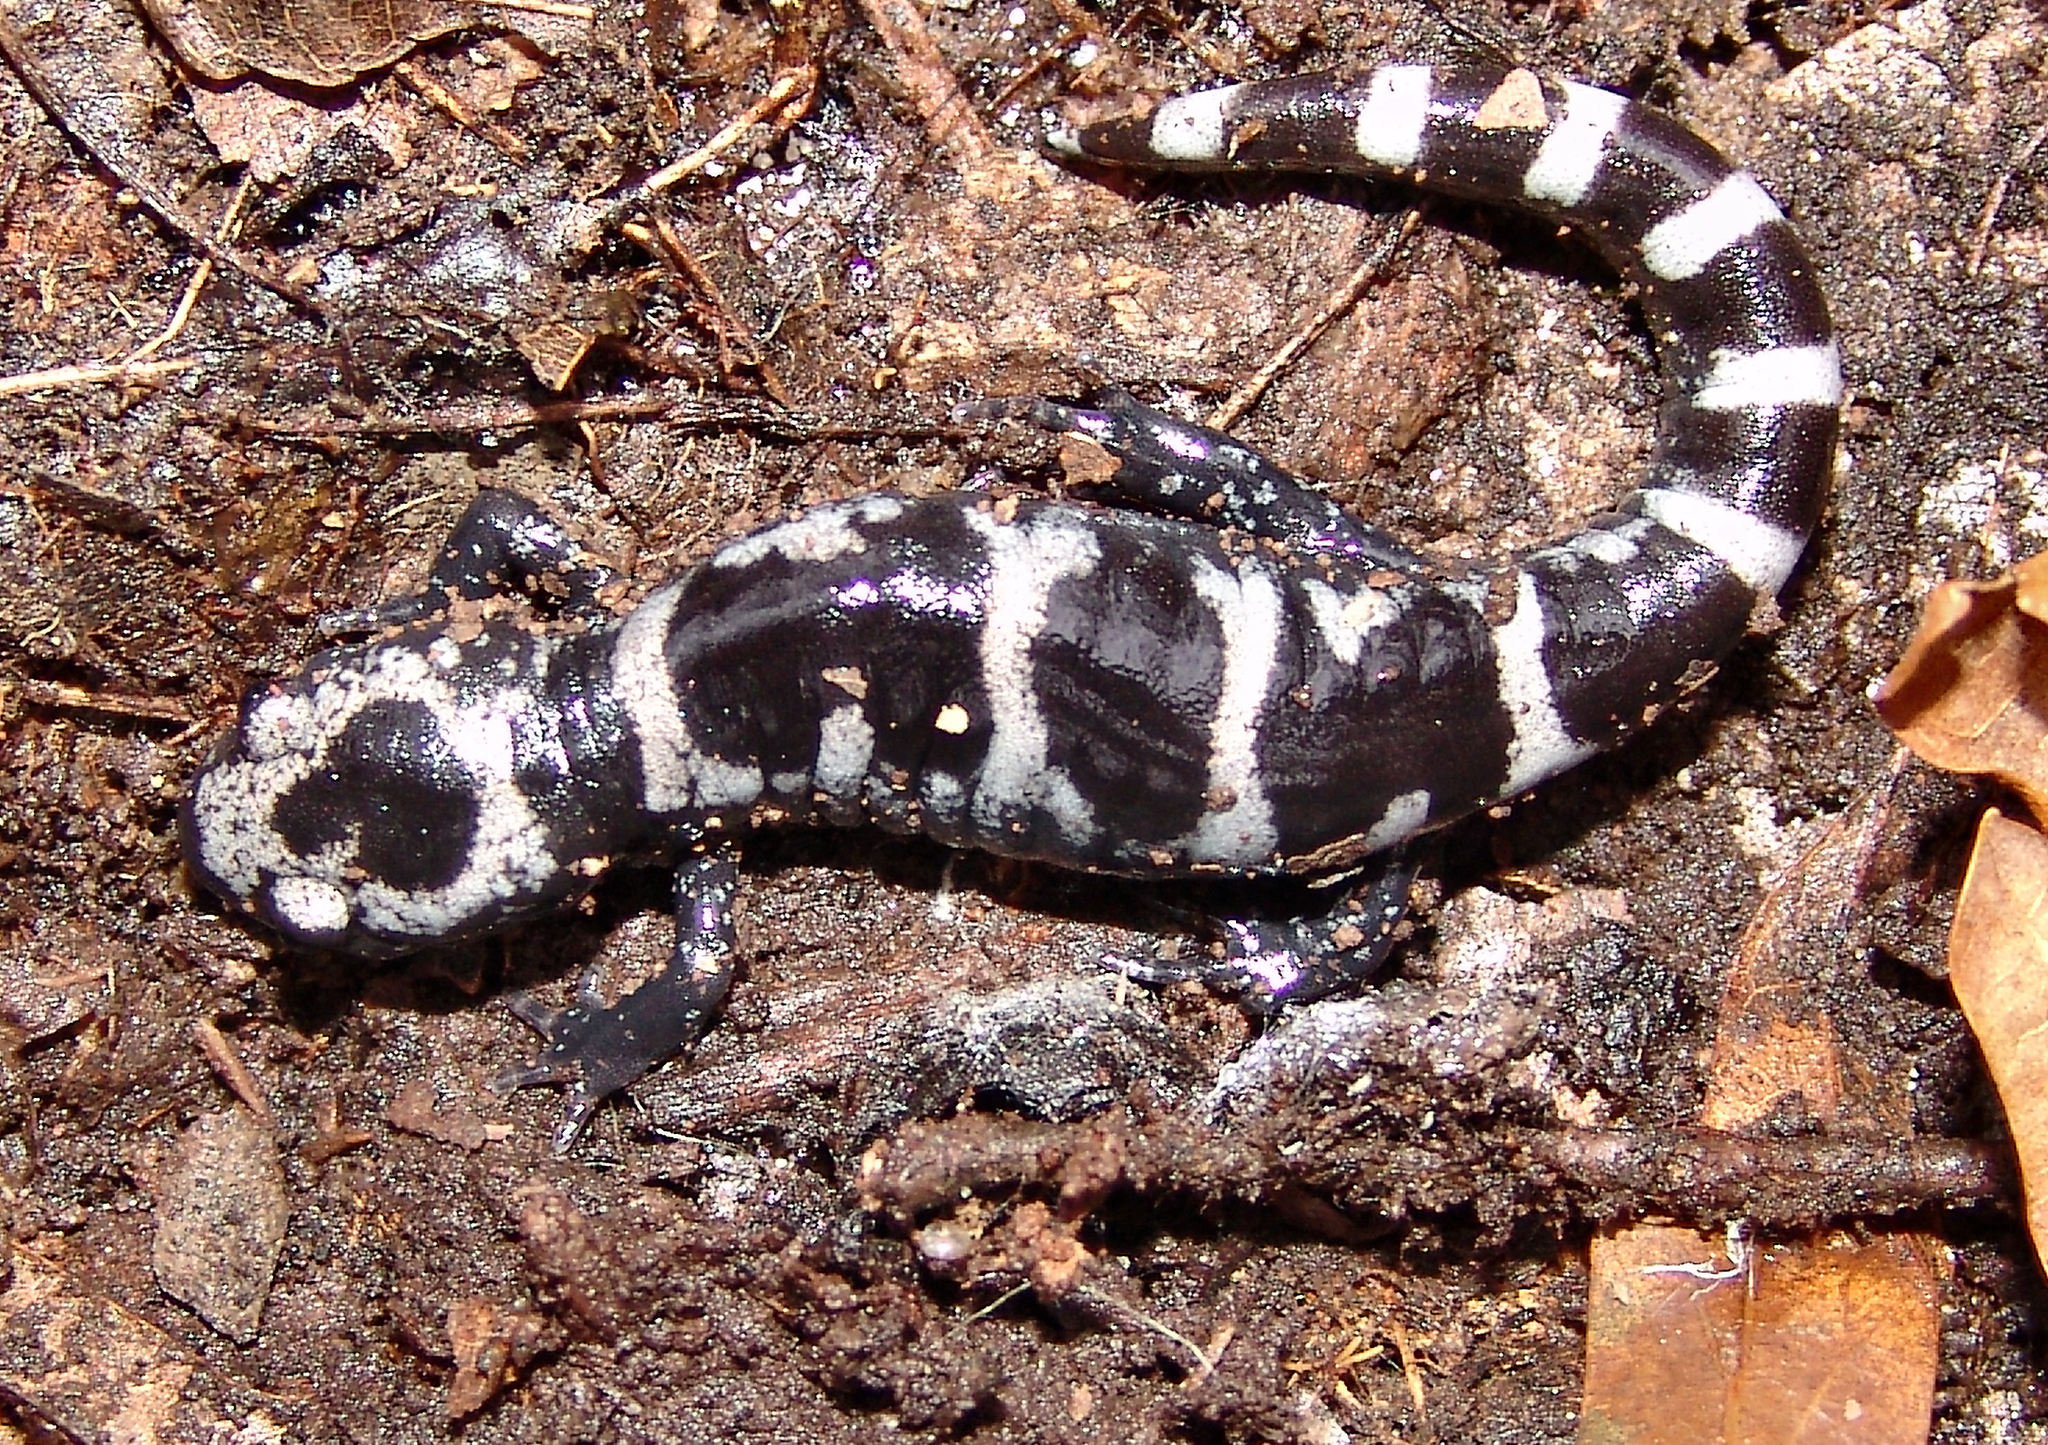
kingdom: Animalia
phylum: Chordata
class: Amphibia
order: Caudata
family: Ambystomatidae
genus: Ambystoma
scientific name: Ambystoma opacum
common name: Marbled salamander
